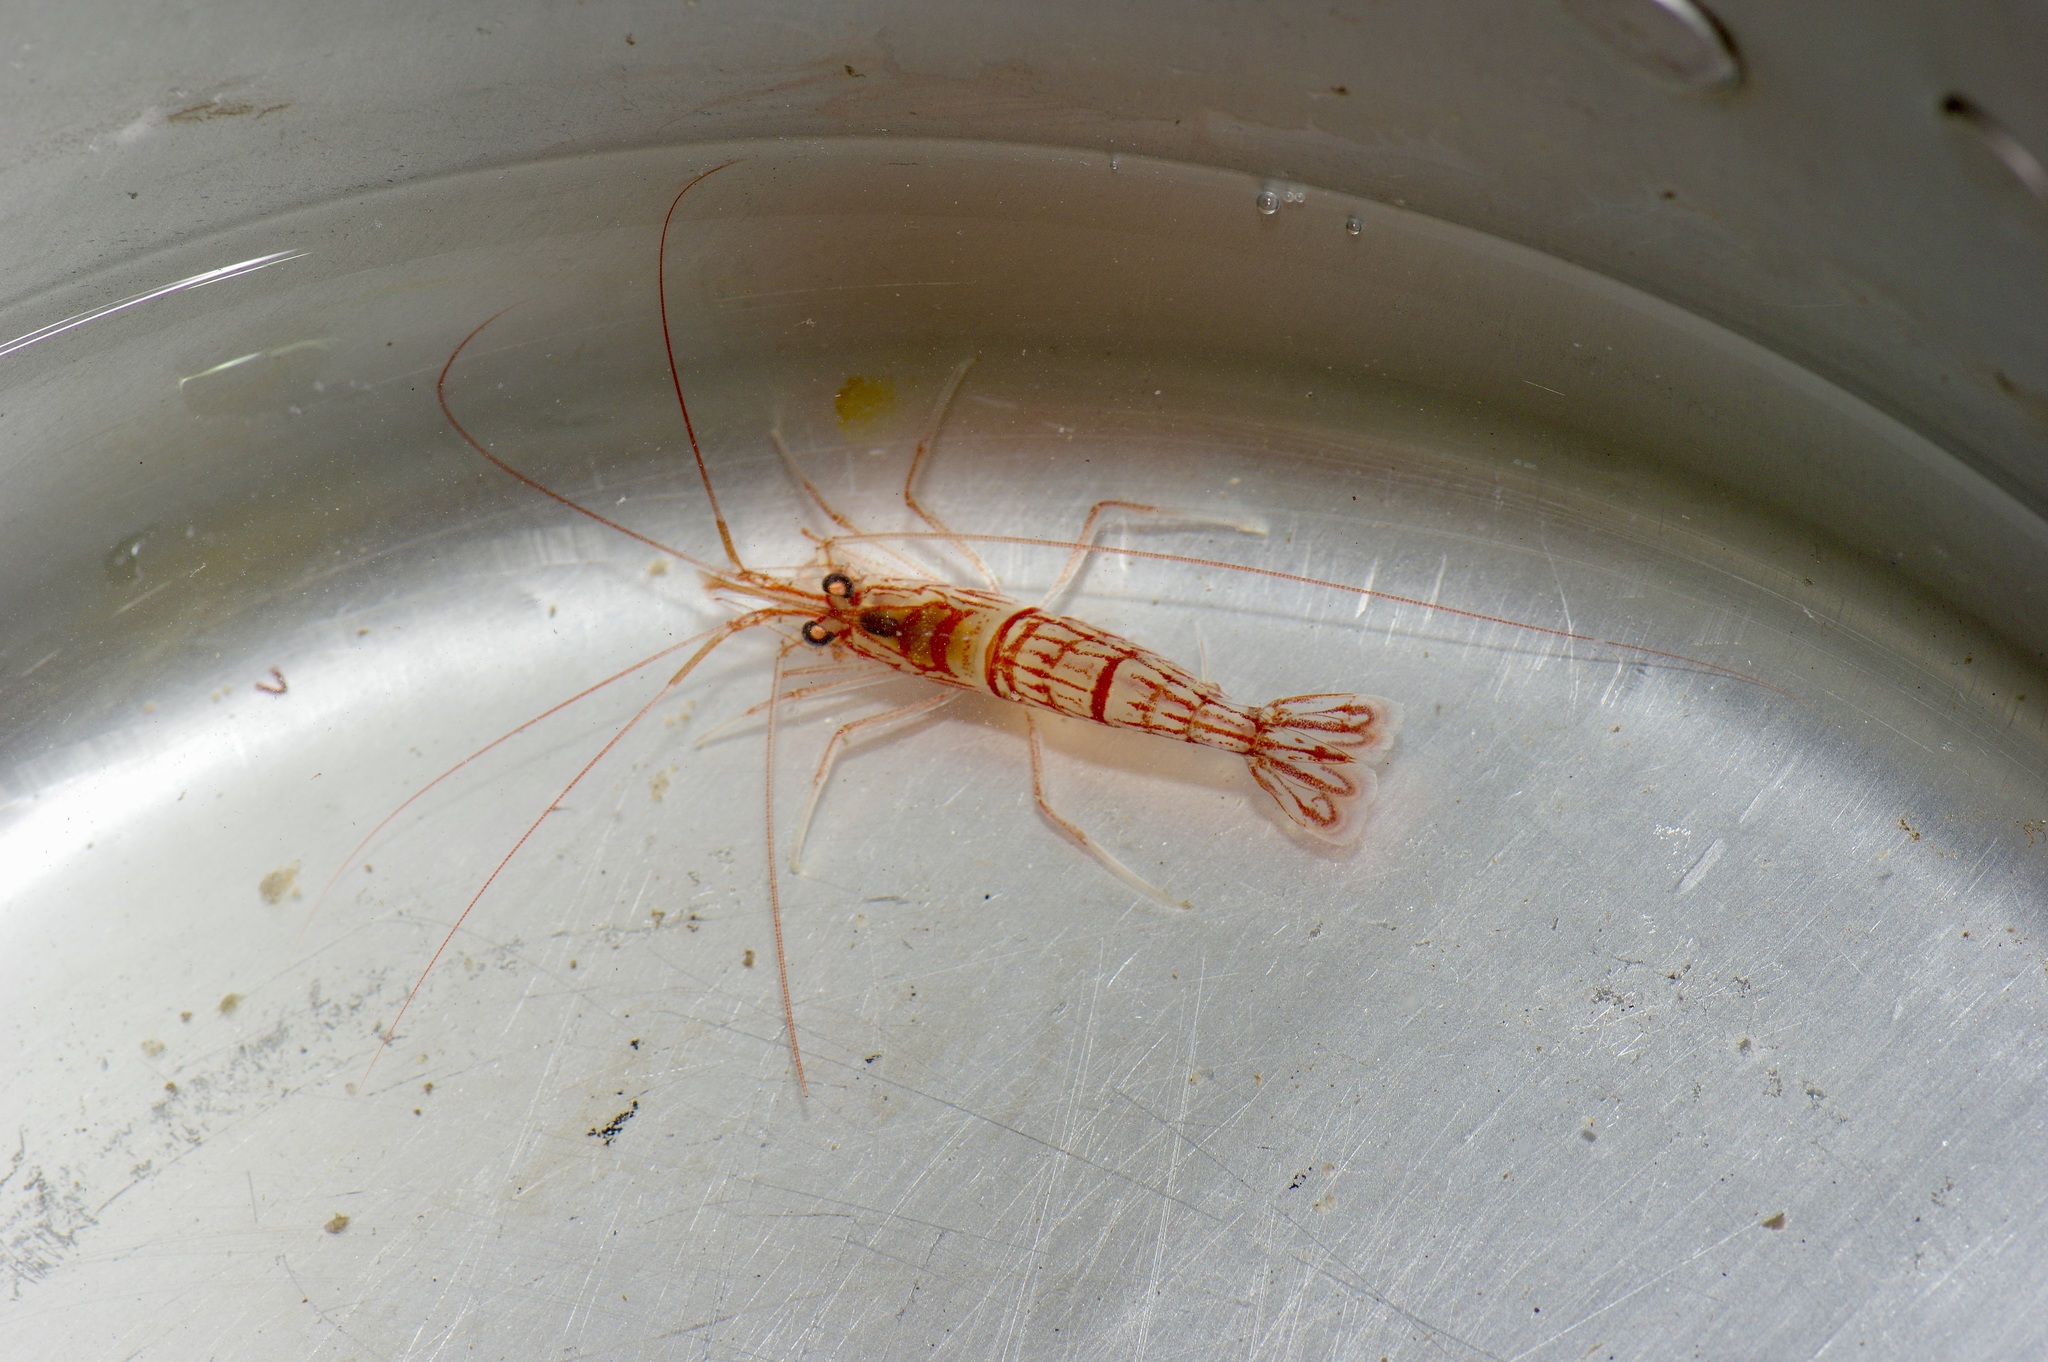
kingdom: Animalia
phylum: Arthropoda
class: Malacostraca
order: Decapoda
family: Lysmatidae
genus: Lysmata
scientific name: Lysmata wurdemanni
